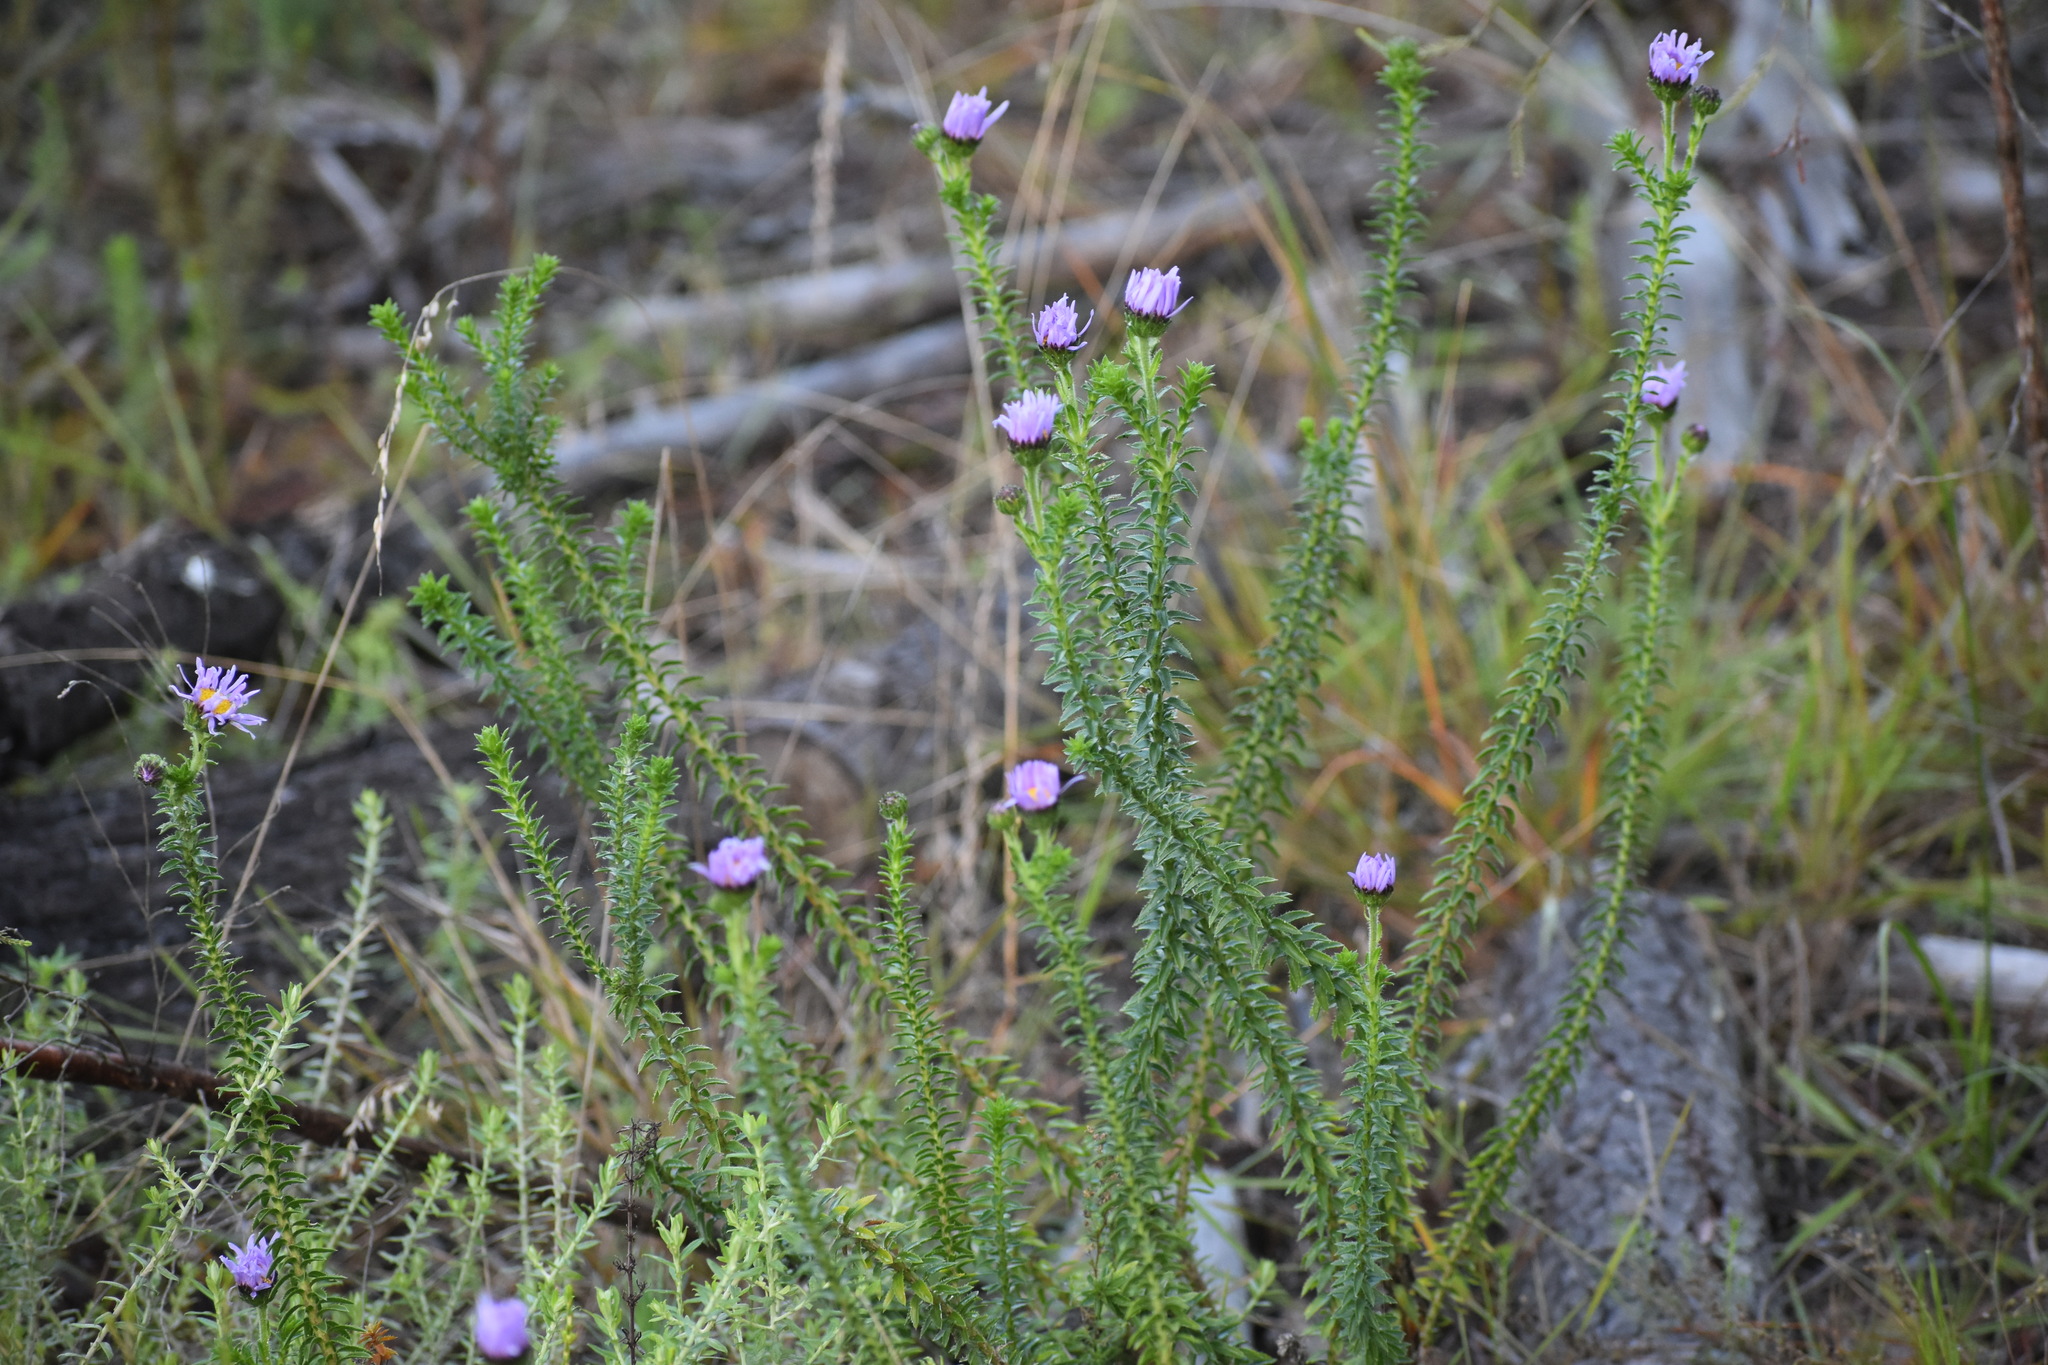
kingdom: Plantae
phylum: Tracheophyta
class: Magnoliopsida
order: Asterales
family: Asteraceae
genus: Felicia
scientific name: Felicia echinata
